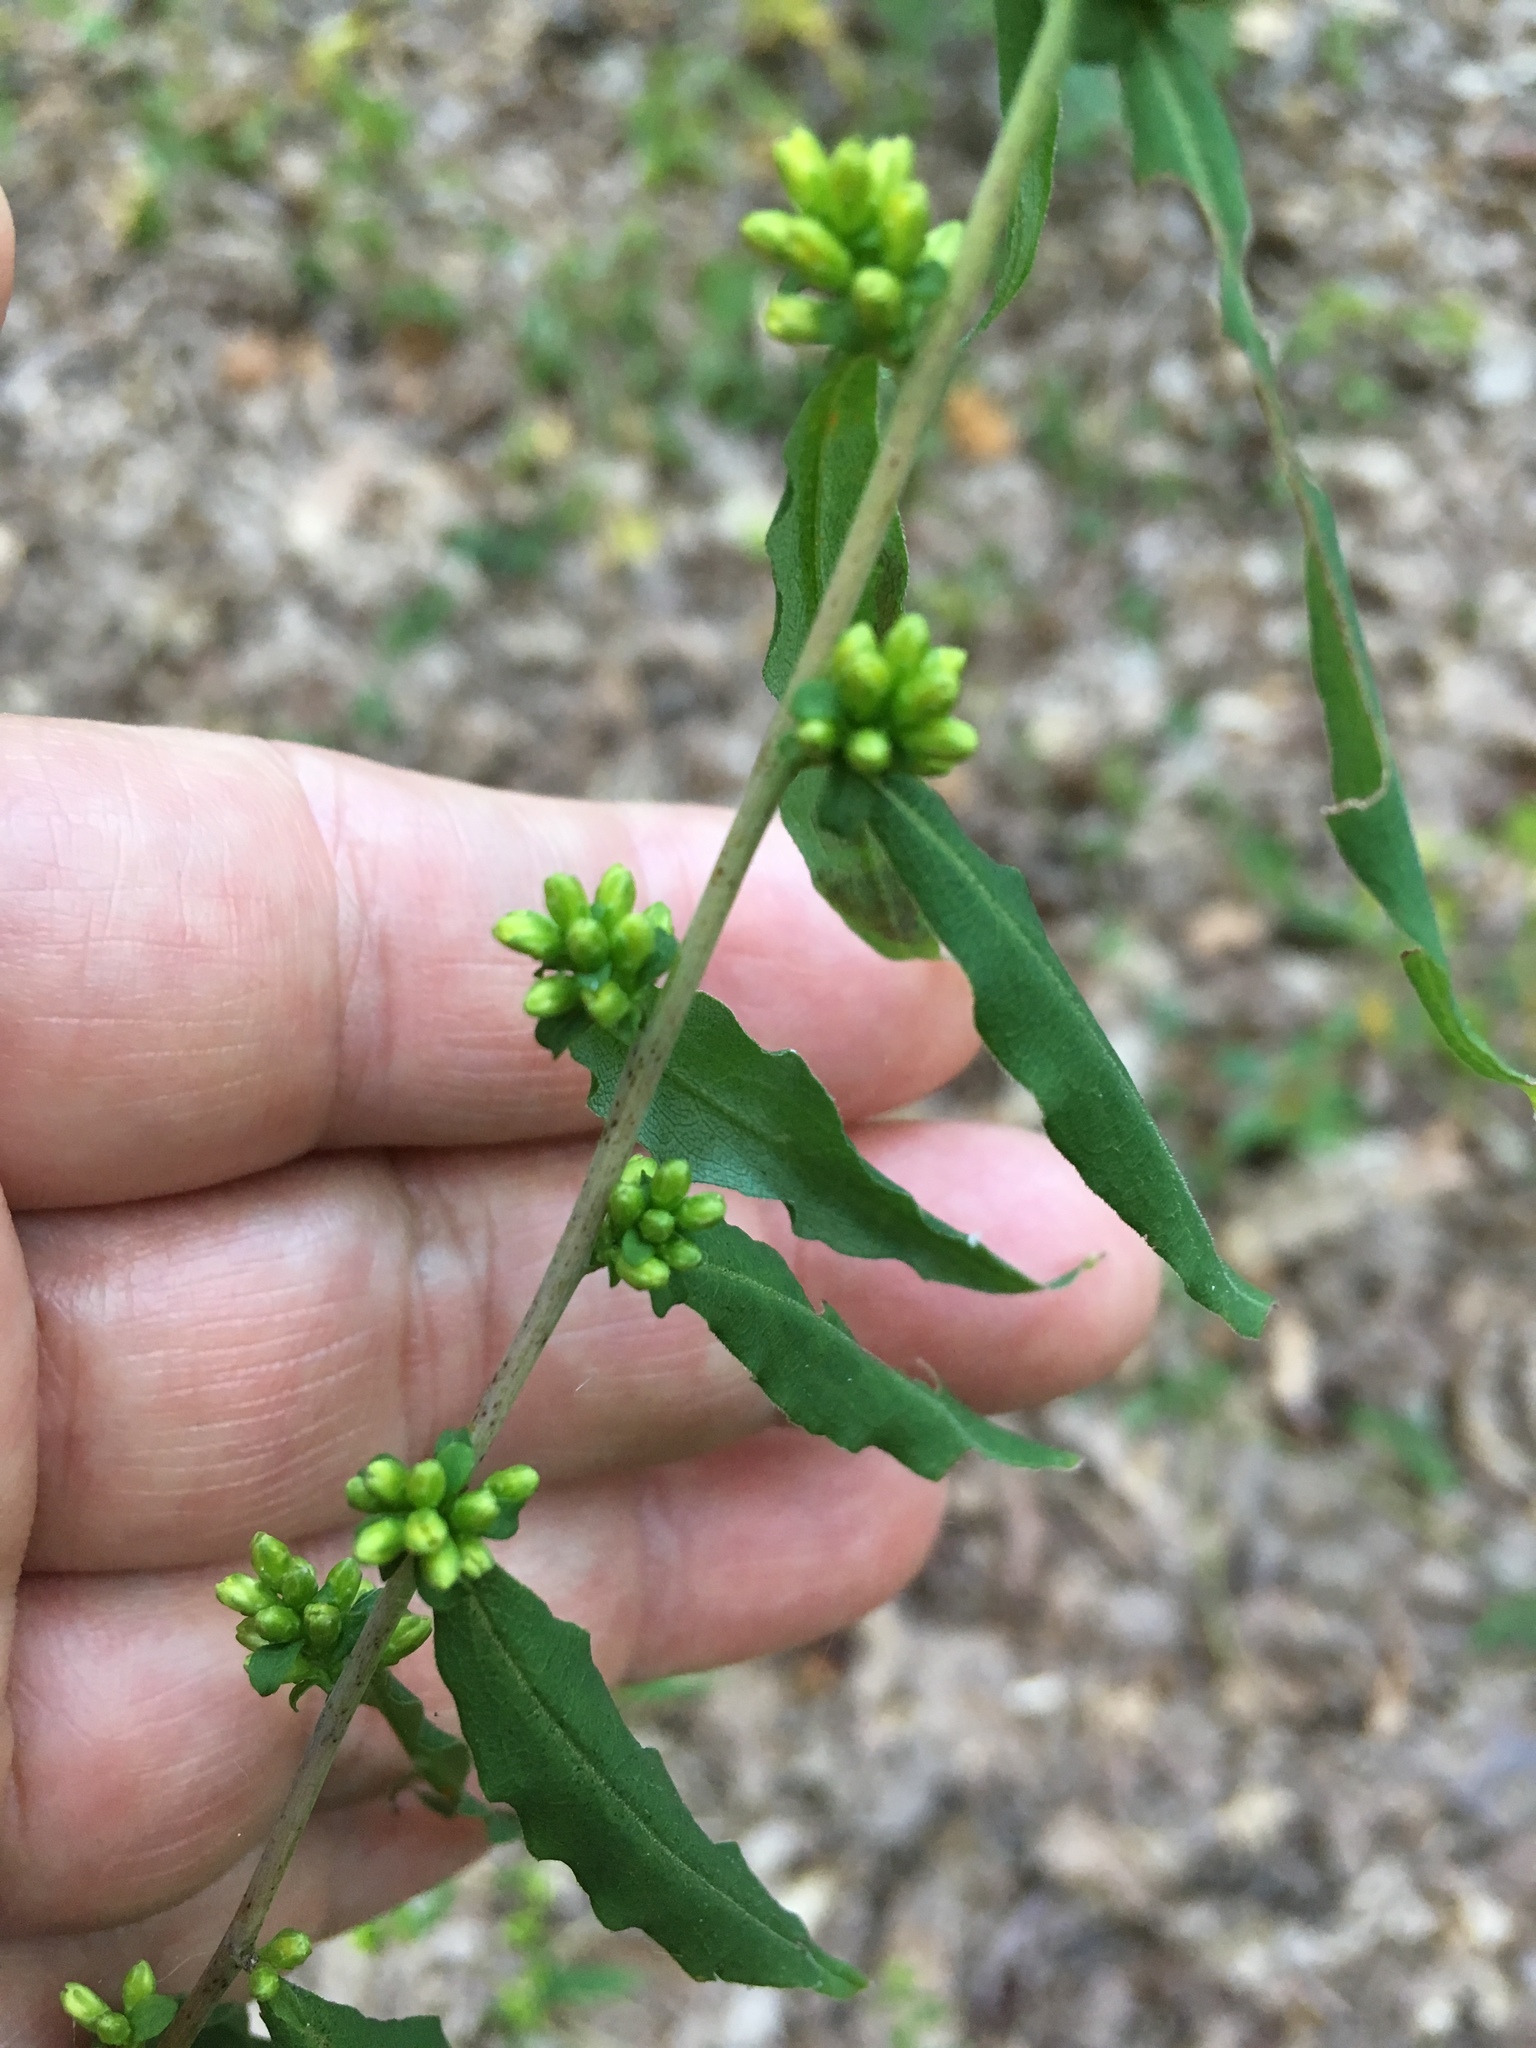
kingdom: Plantae
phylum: Tracheophyta
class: Magnoliopsida
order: Asterales
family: Asteraceae
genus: Solidago
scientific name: Solidago caesia
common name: Woodland goldenrod
